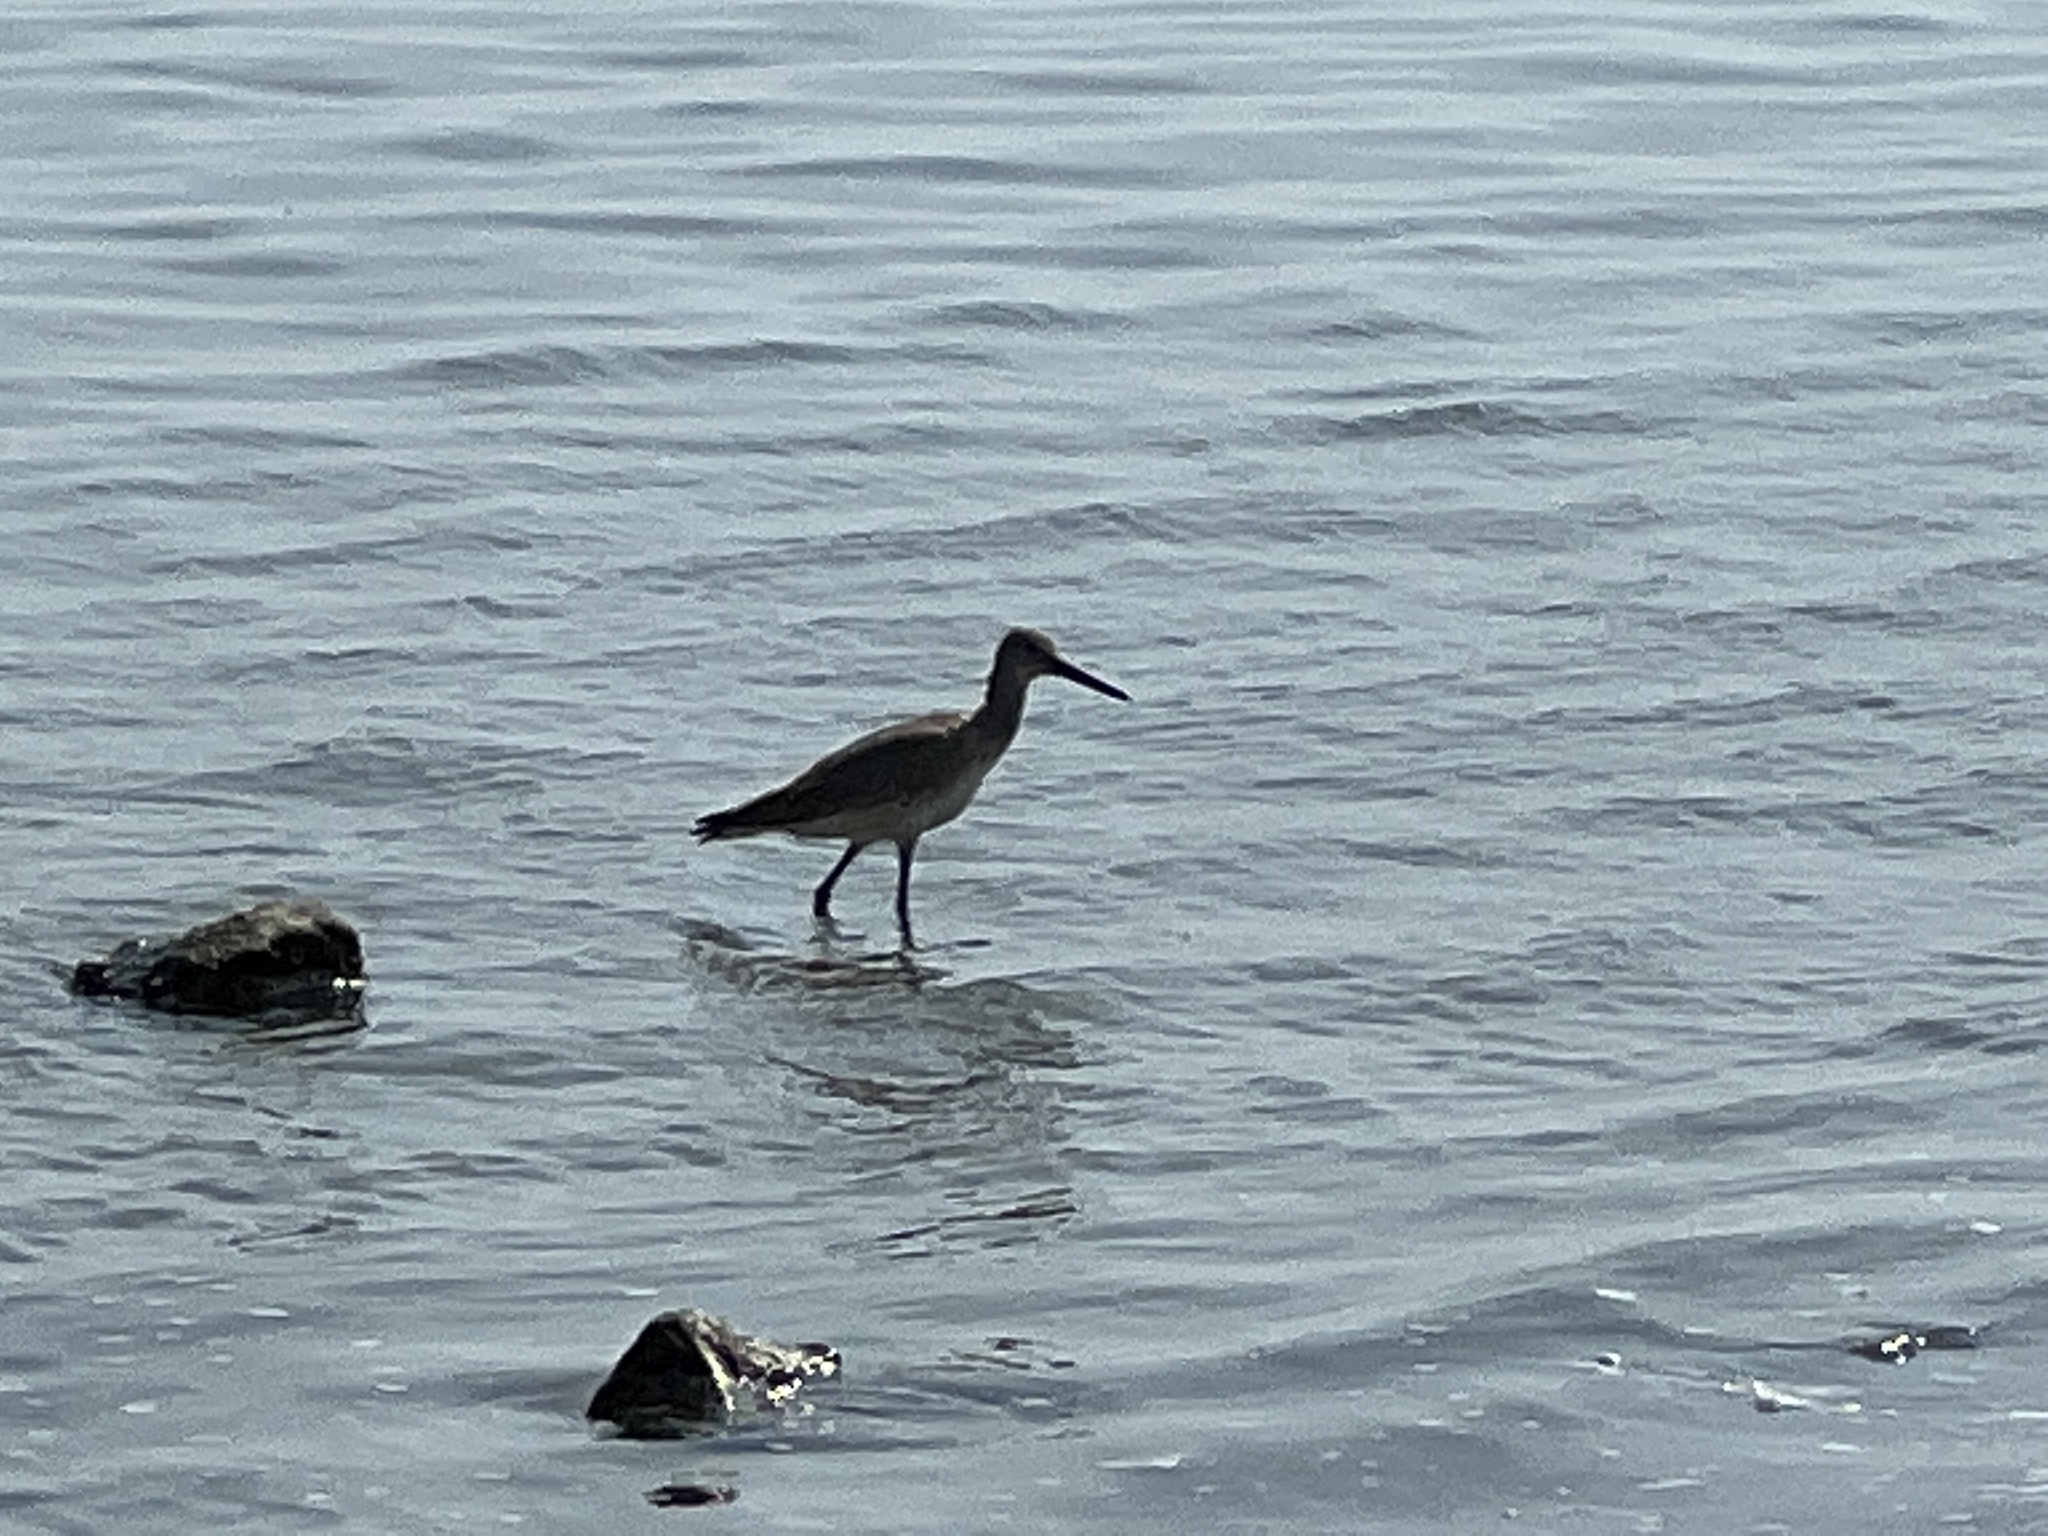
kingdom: Animalia
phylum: Chordata
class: Aves
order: Charadriiformes
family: Scolopacidae
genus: Tringa
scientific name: Tringa semipalmata
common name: Willet
